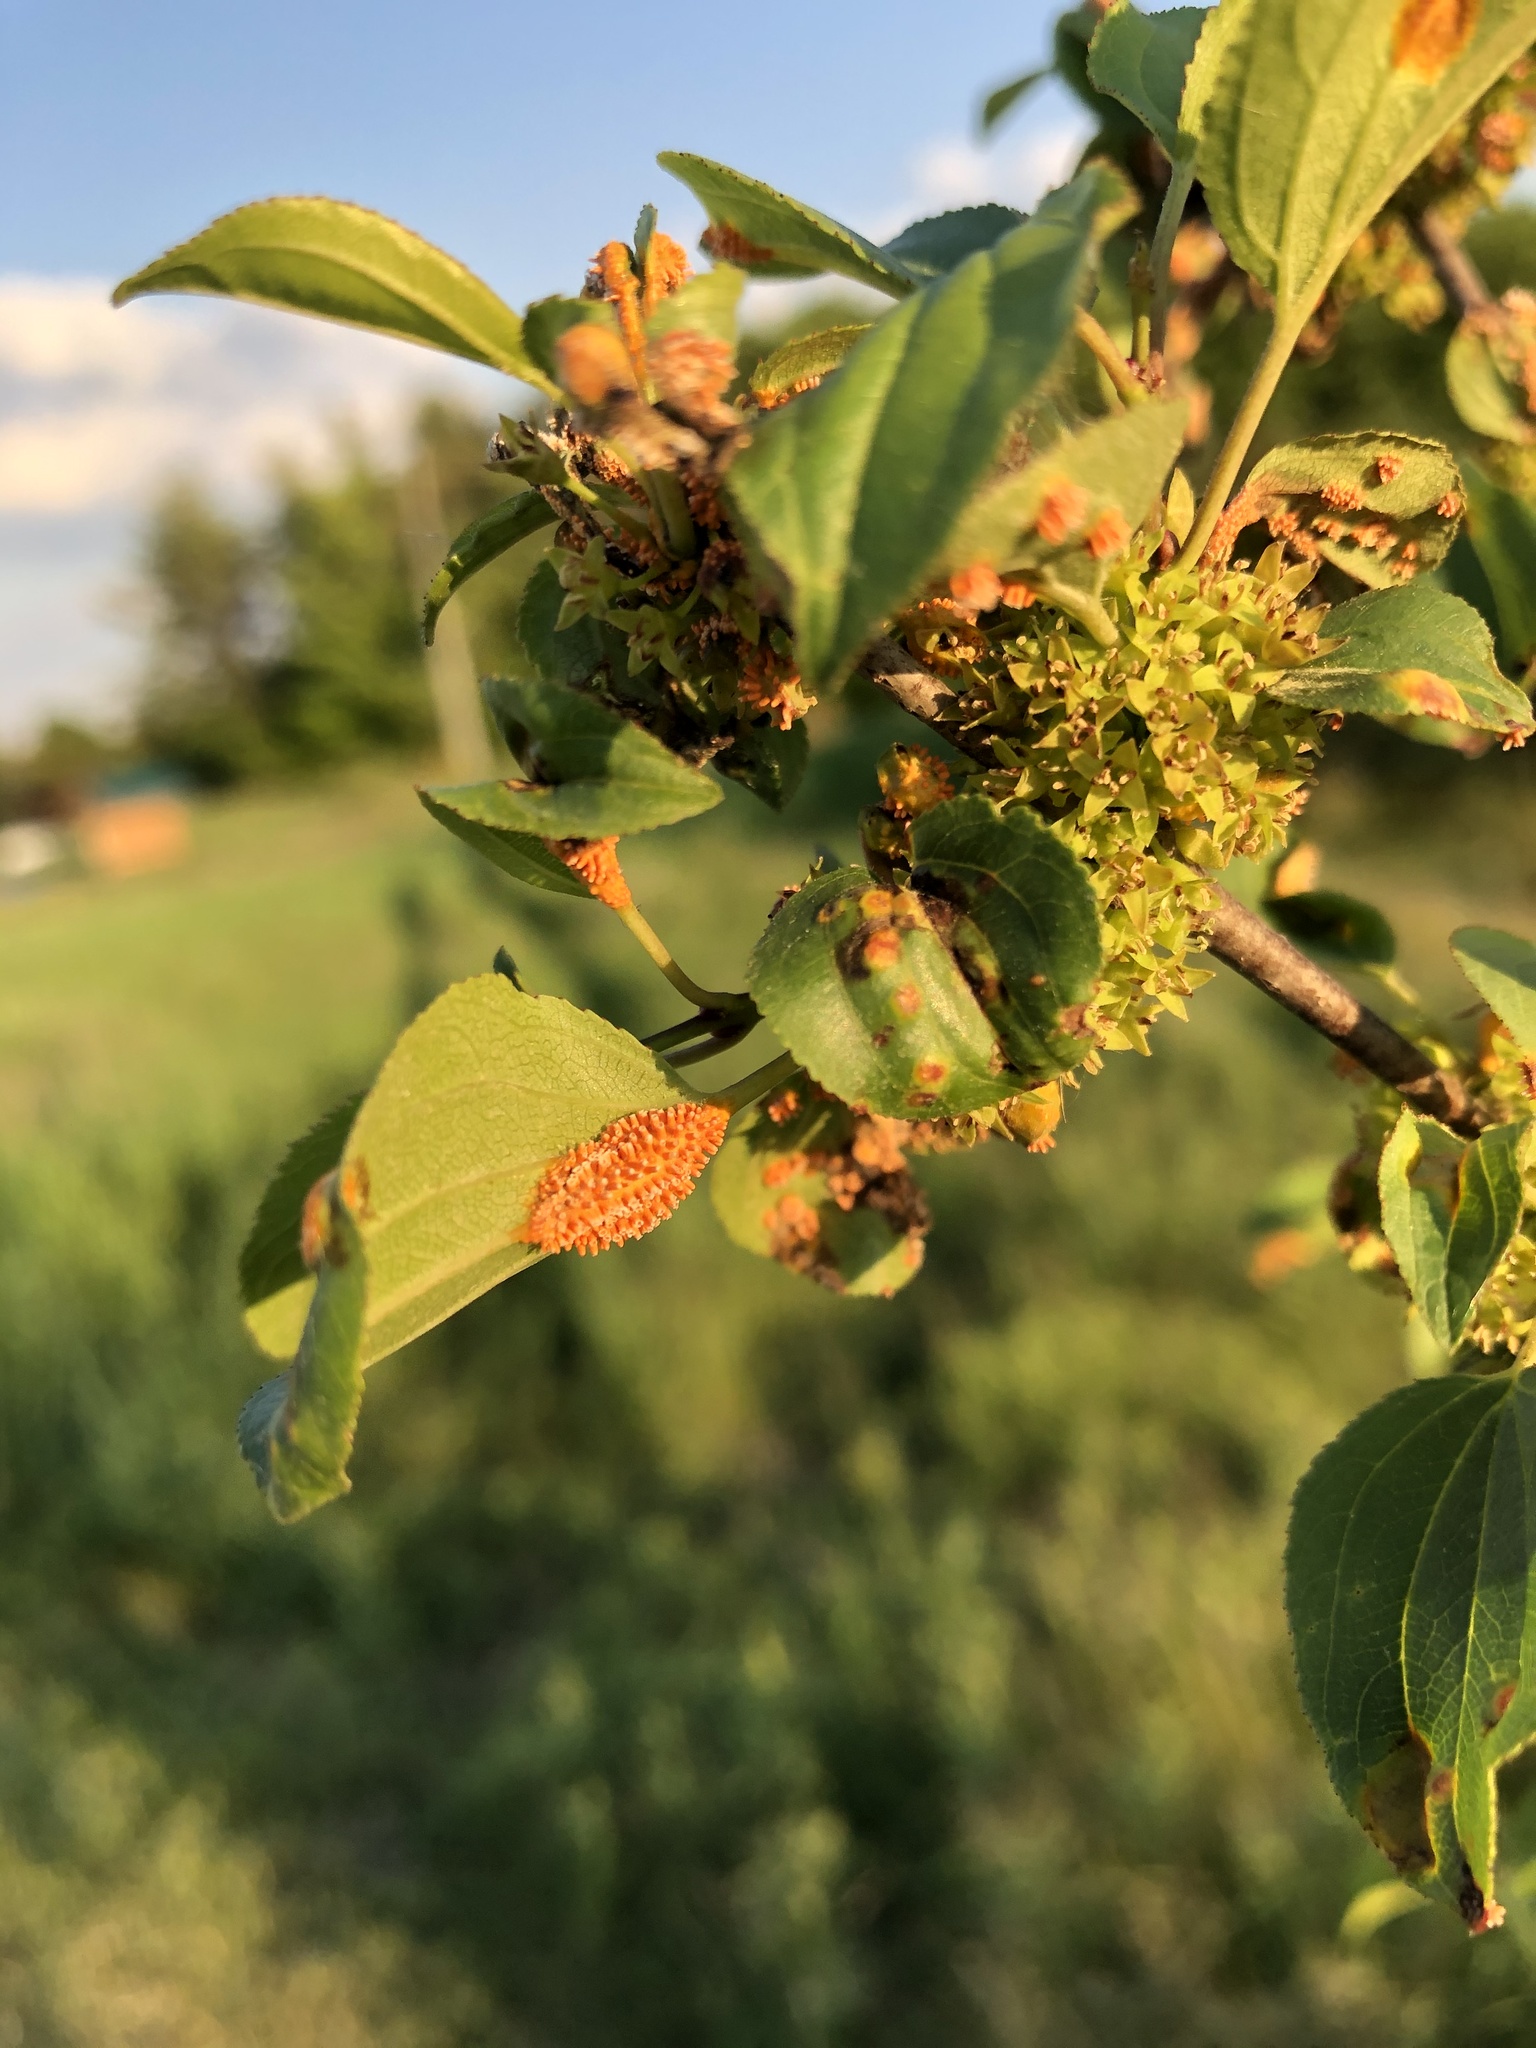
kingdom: Fungi
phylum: Basidiomycota
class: Pucciniomycetes
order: Pucciniales
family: Pucciniaceae
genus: Puccinia
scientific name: Puccinia coronata
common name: Crown rust
